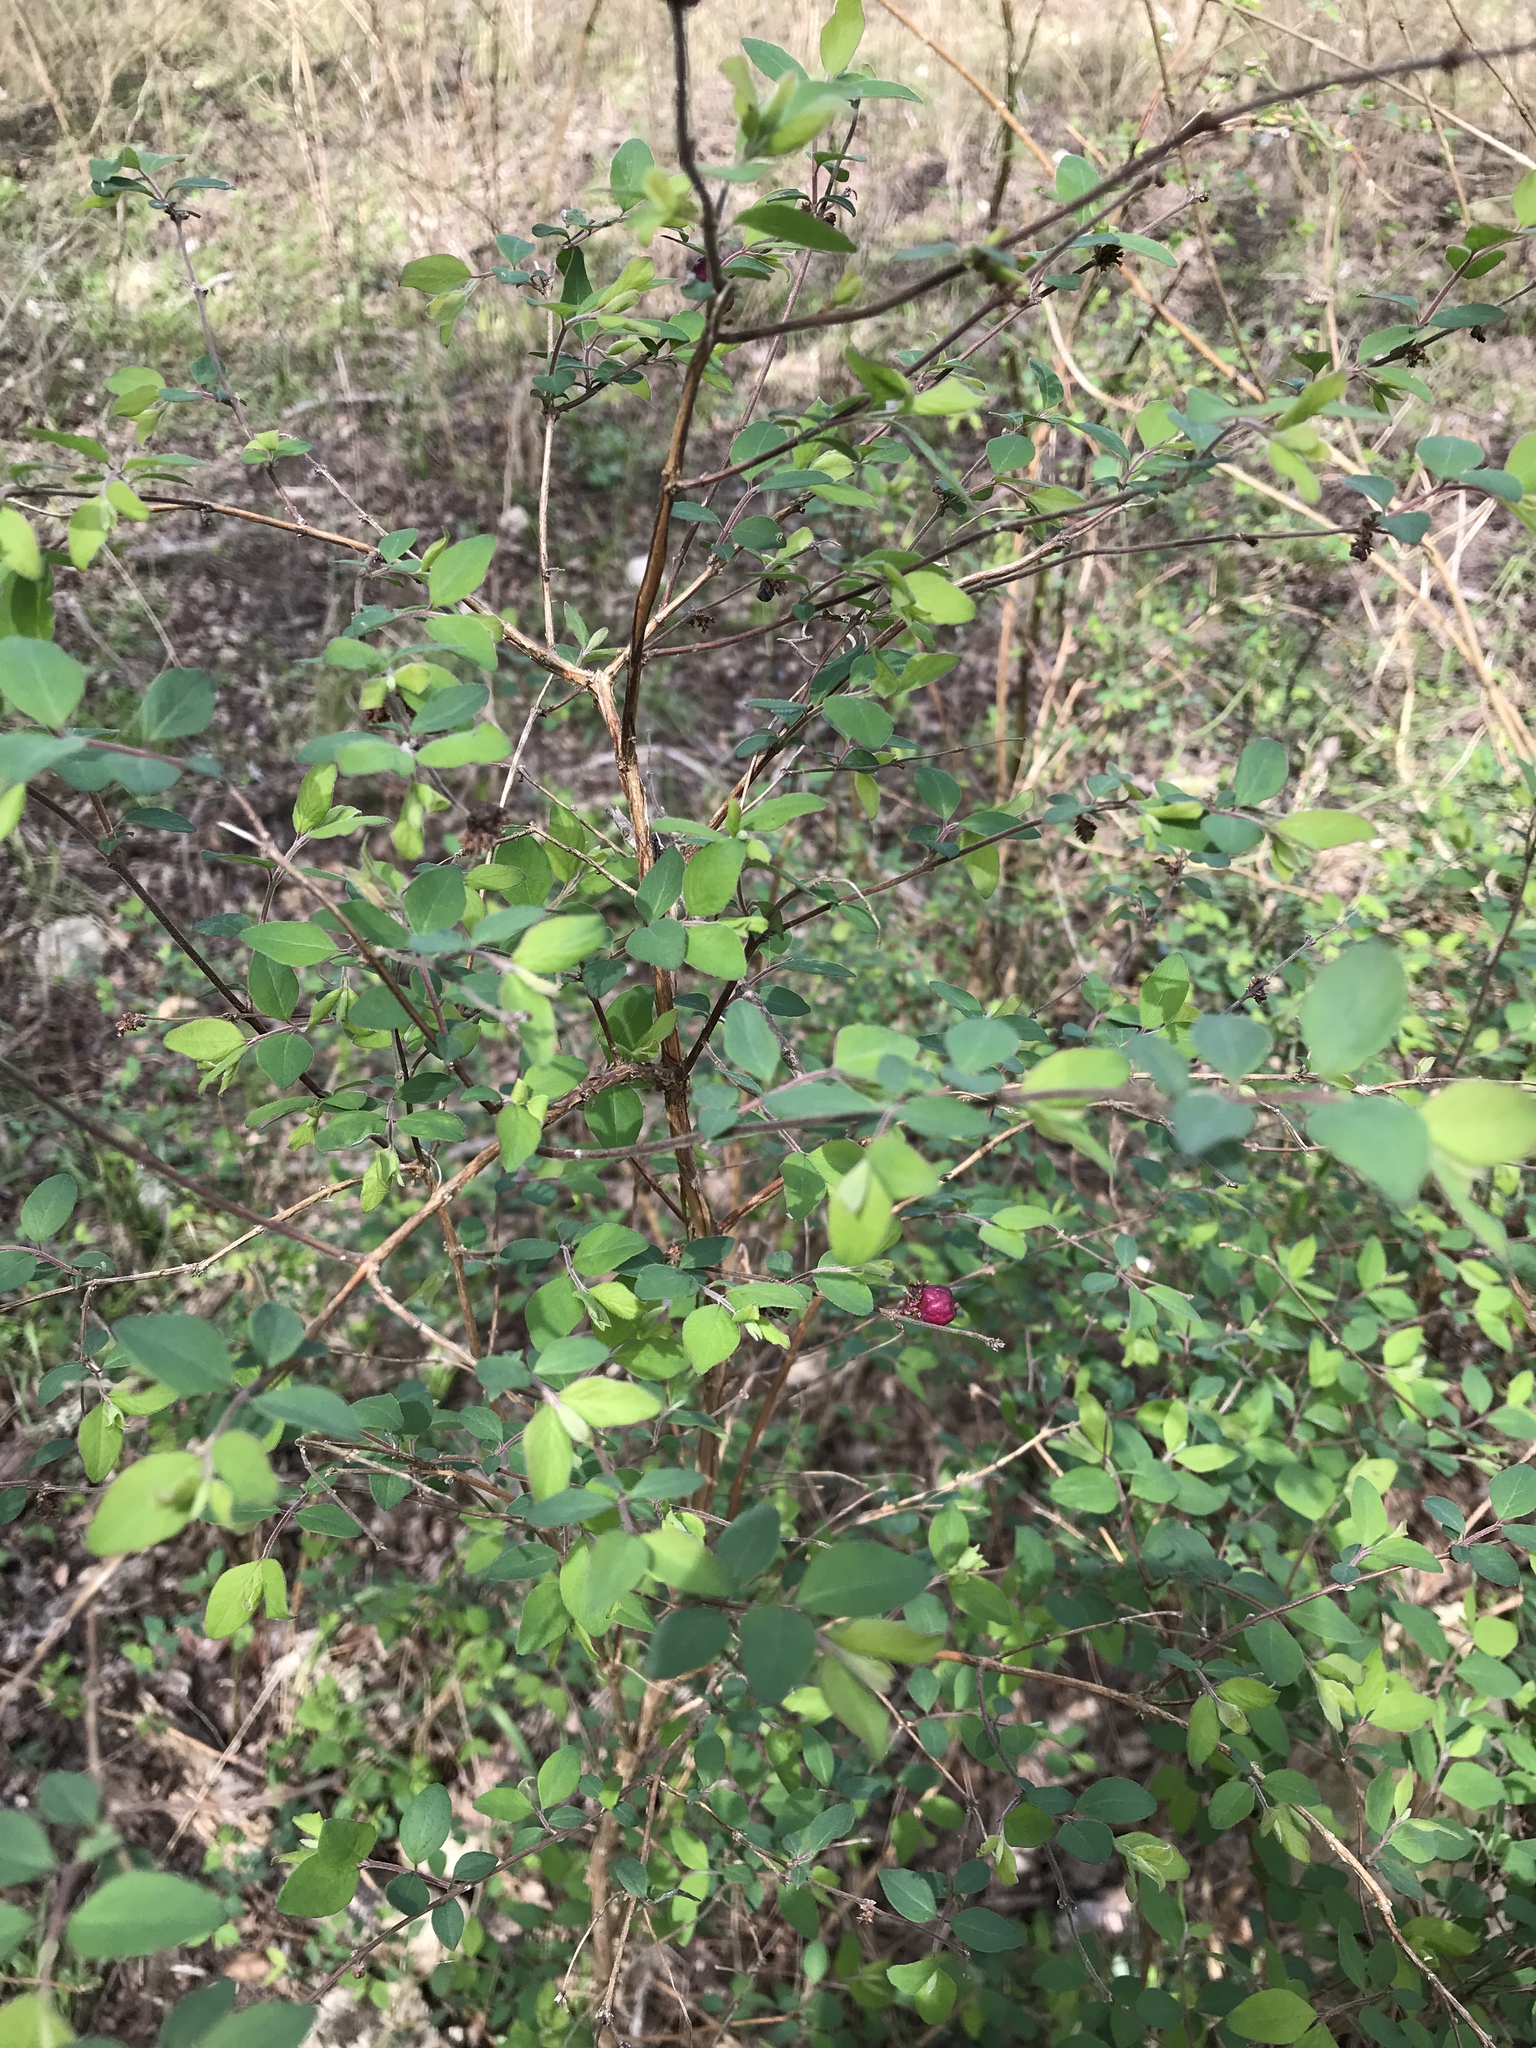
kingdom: Plantae
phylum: Tracheophyta
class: Magnoliopsida
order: Dipsacales
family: Caprifoliaceae
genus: Symphoricarpos
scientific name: Symphoricarpos orbiculatus
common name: Coralberry
